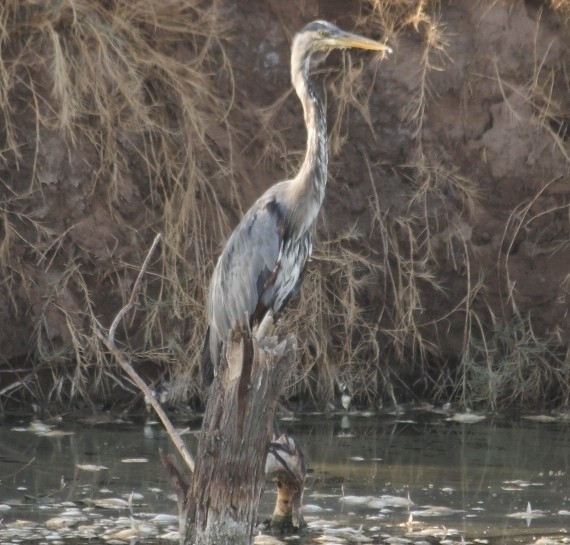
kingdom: Animalia
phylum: Chordata
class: Aves
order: Pelecaniformes
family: Ardeidae
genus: Ardea
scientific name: Ardea herodias
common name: Great blue heron
